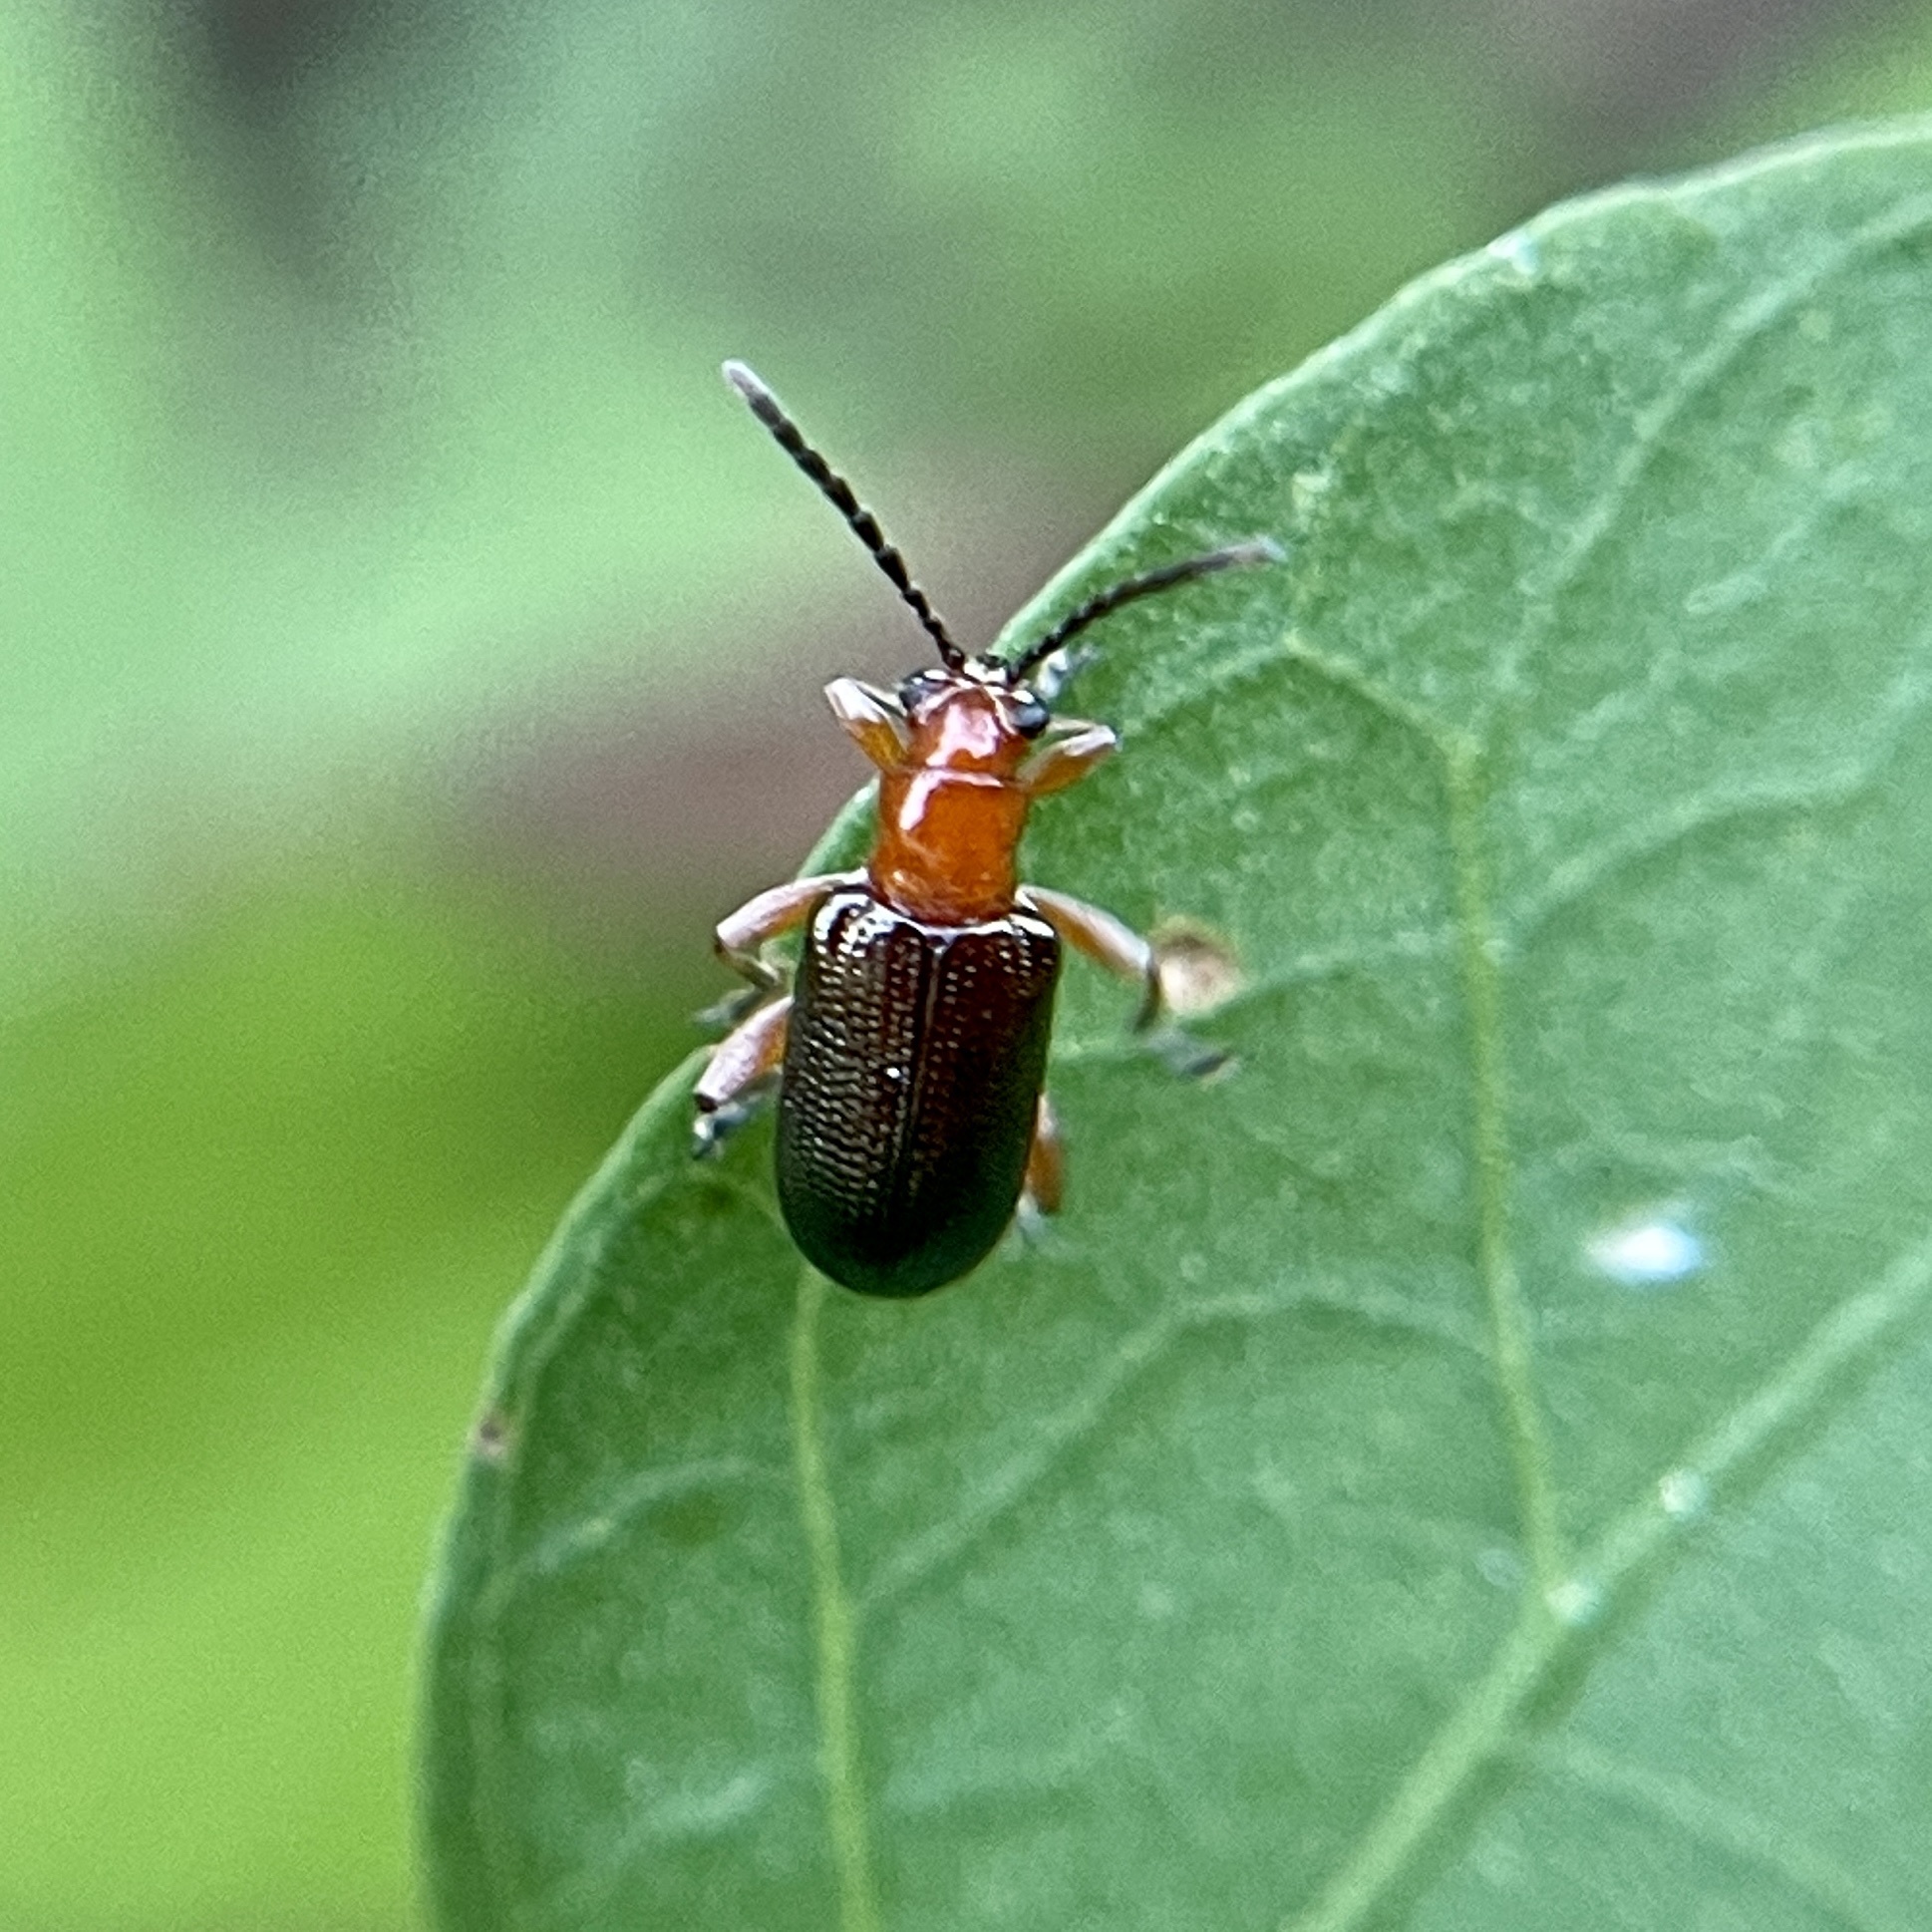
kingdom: Animalia
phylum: Arthropoda
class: Insecta
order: Coleoptera
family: Chrysomelidae
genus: Oulema
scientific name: Oulema variabilis
